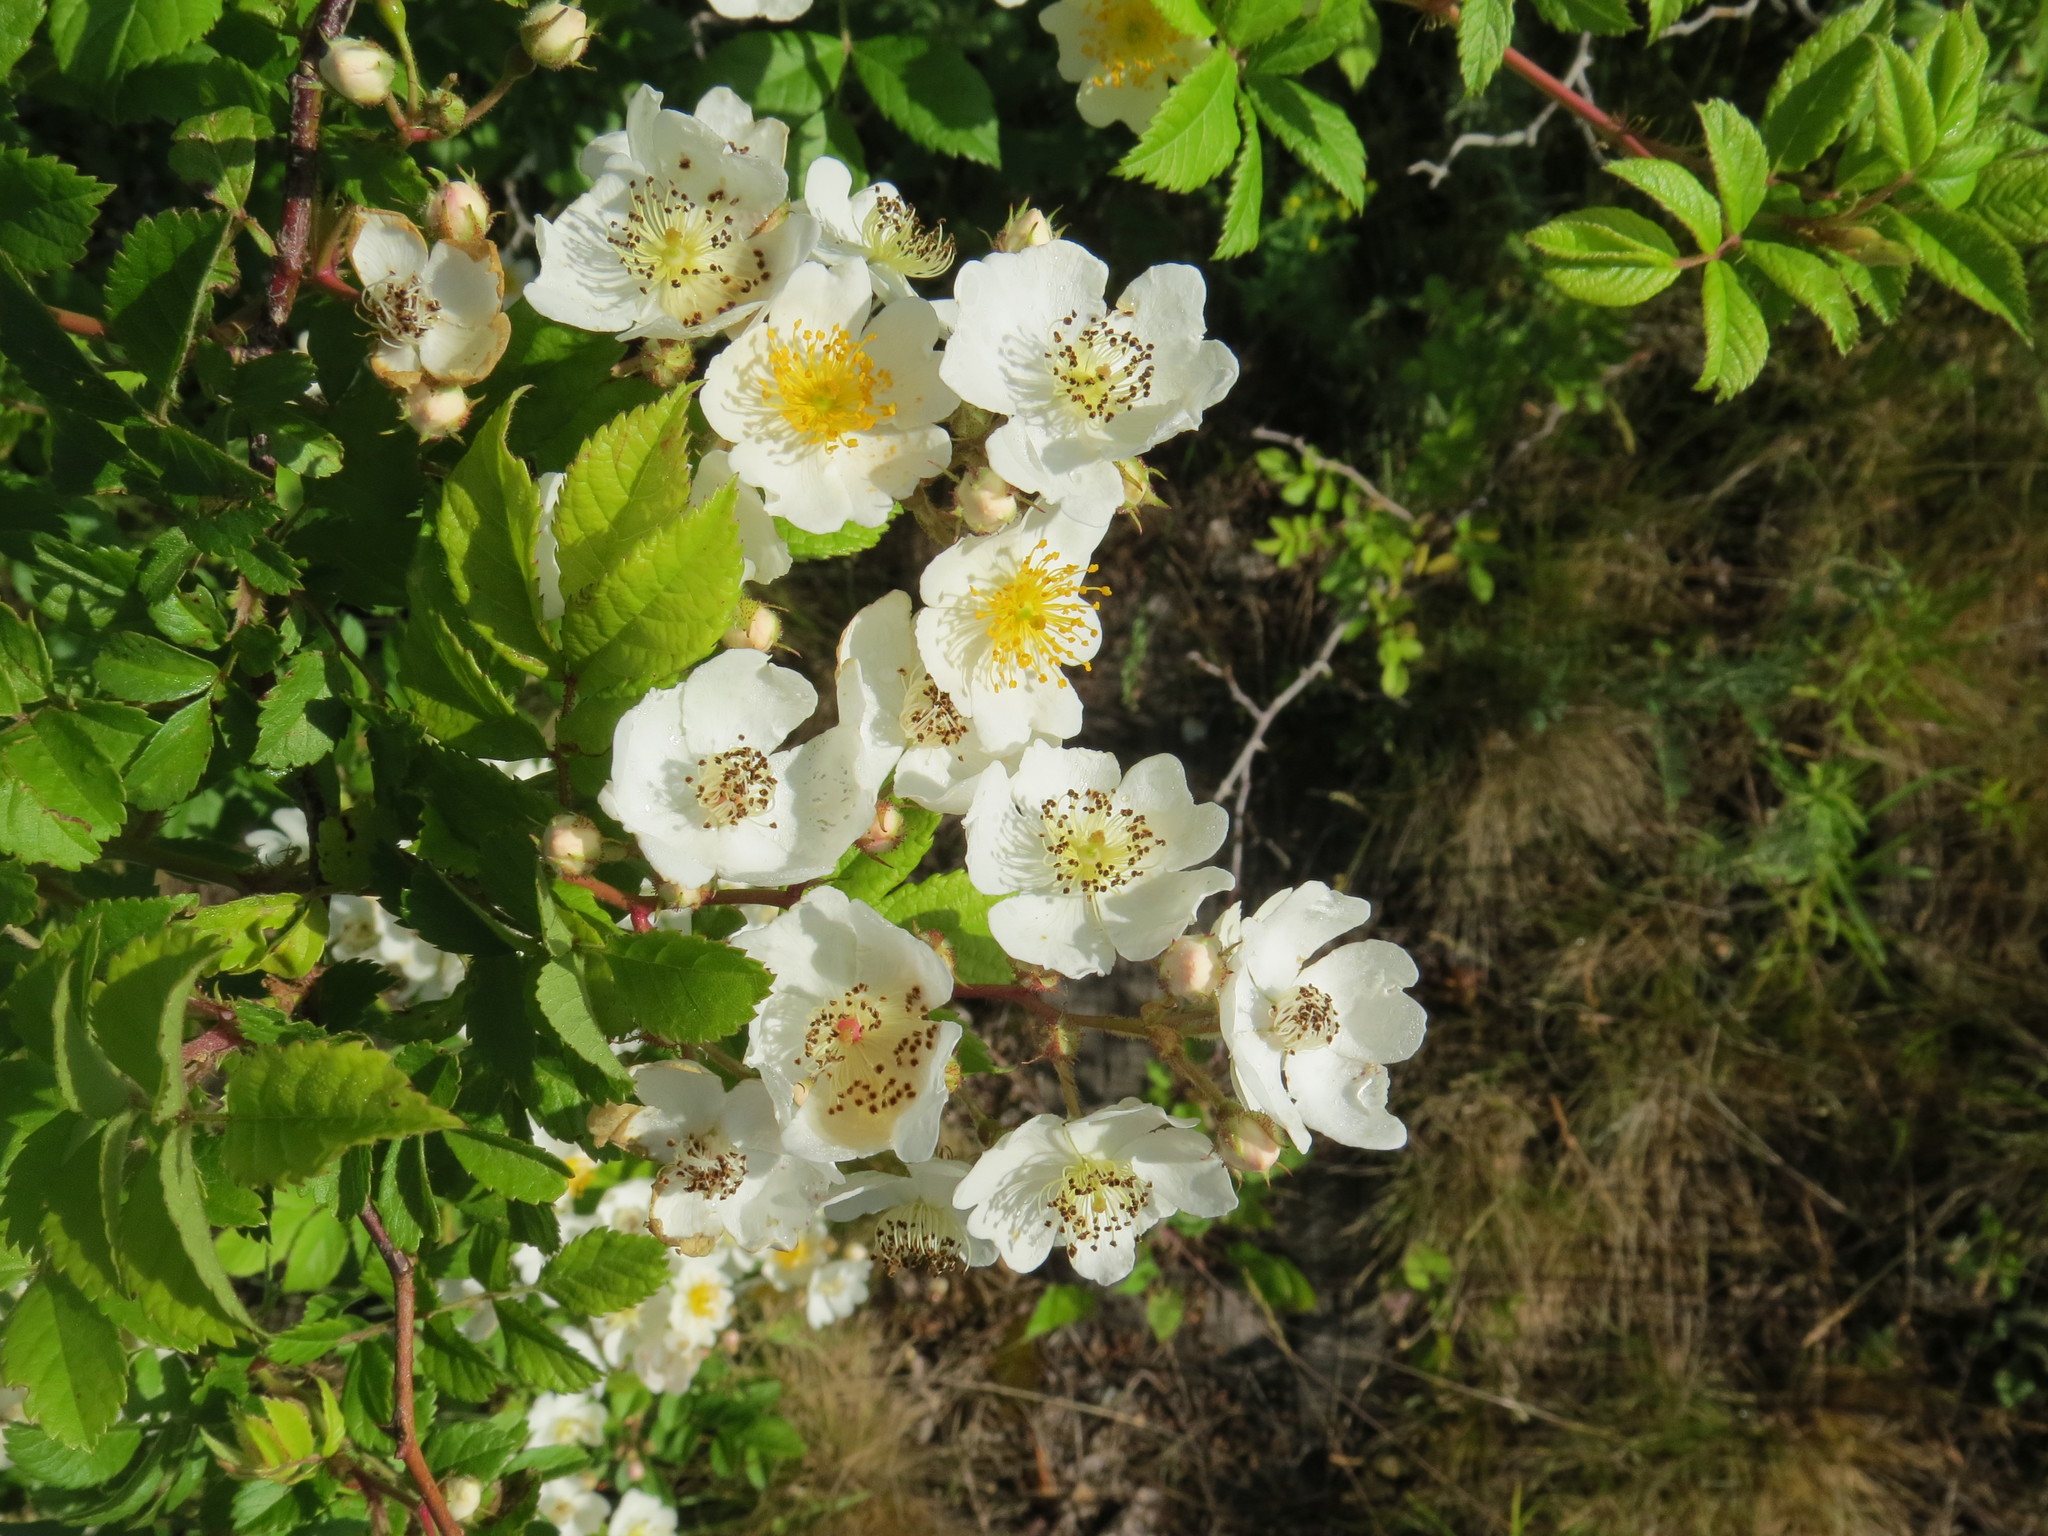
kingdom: Plantae
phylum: Tracheophyta
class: Magnoliopsida
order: Rosales
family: Rosaceae
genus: Rosa
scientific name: Rosa multiflora
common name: Multiflora rose
